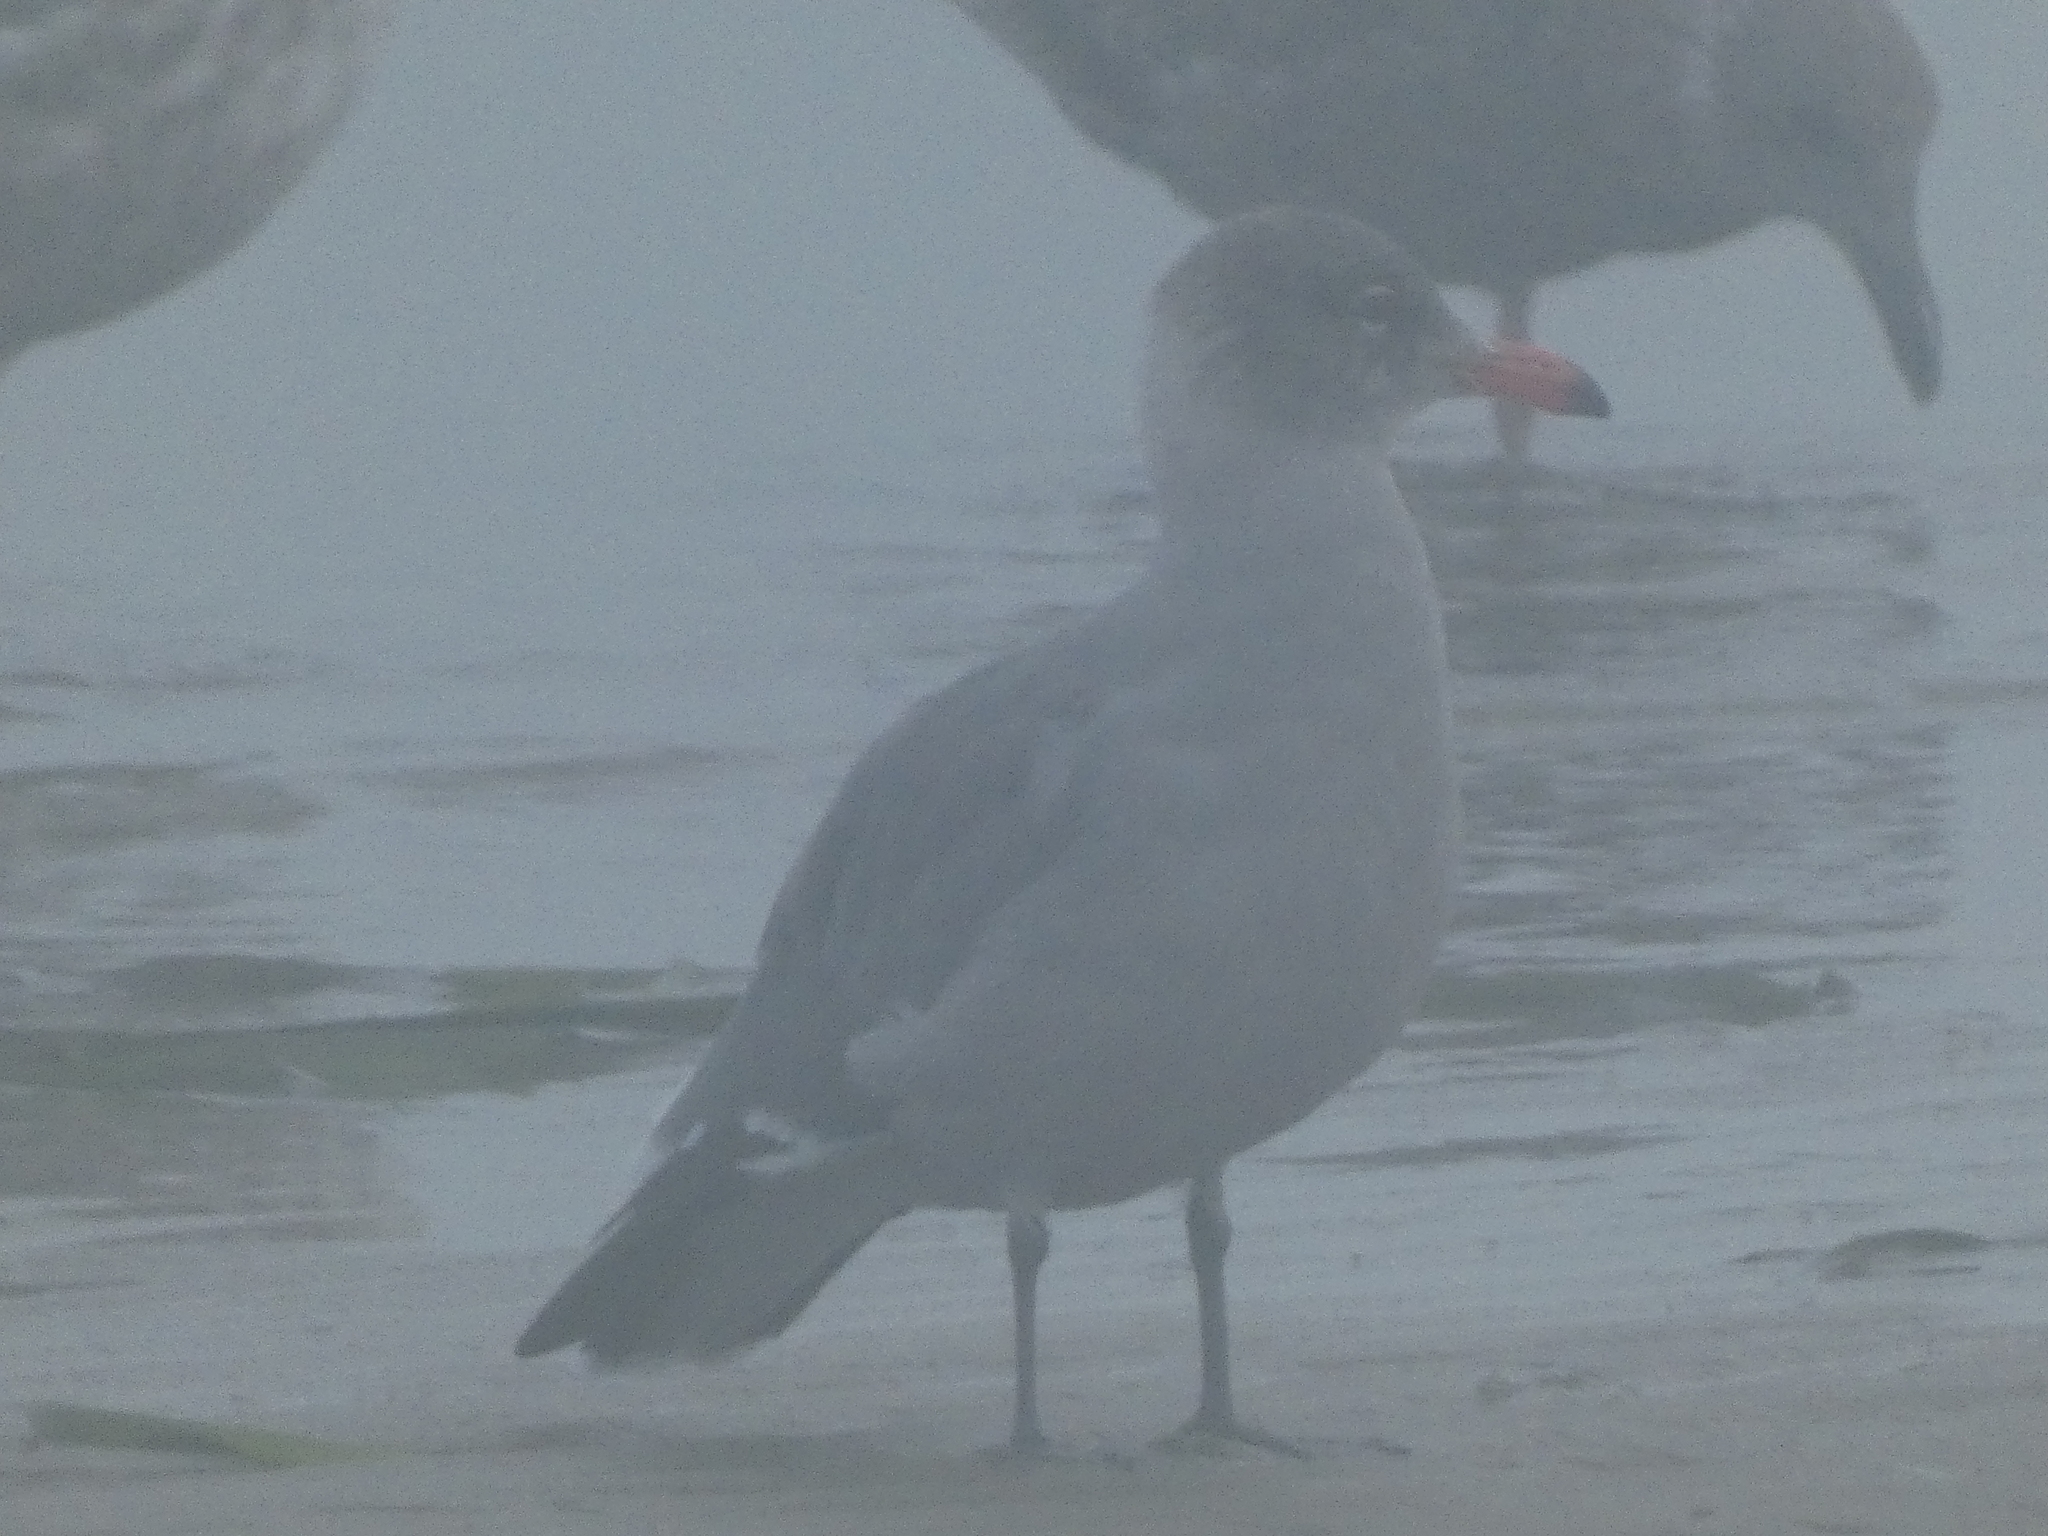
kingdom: Animalia
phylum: Chordata
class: Aves
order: Charadriiformes
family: Laridae
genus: Larus
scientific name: Larus heermanni
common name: Heermann's gull
